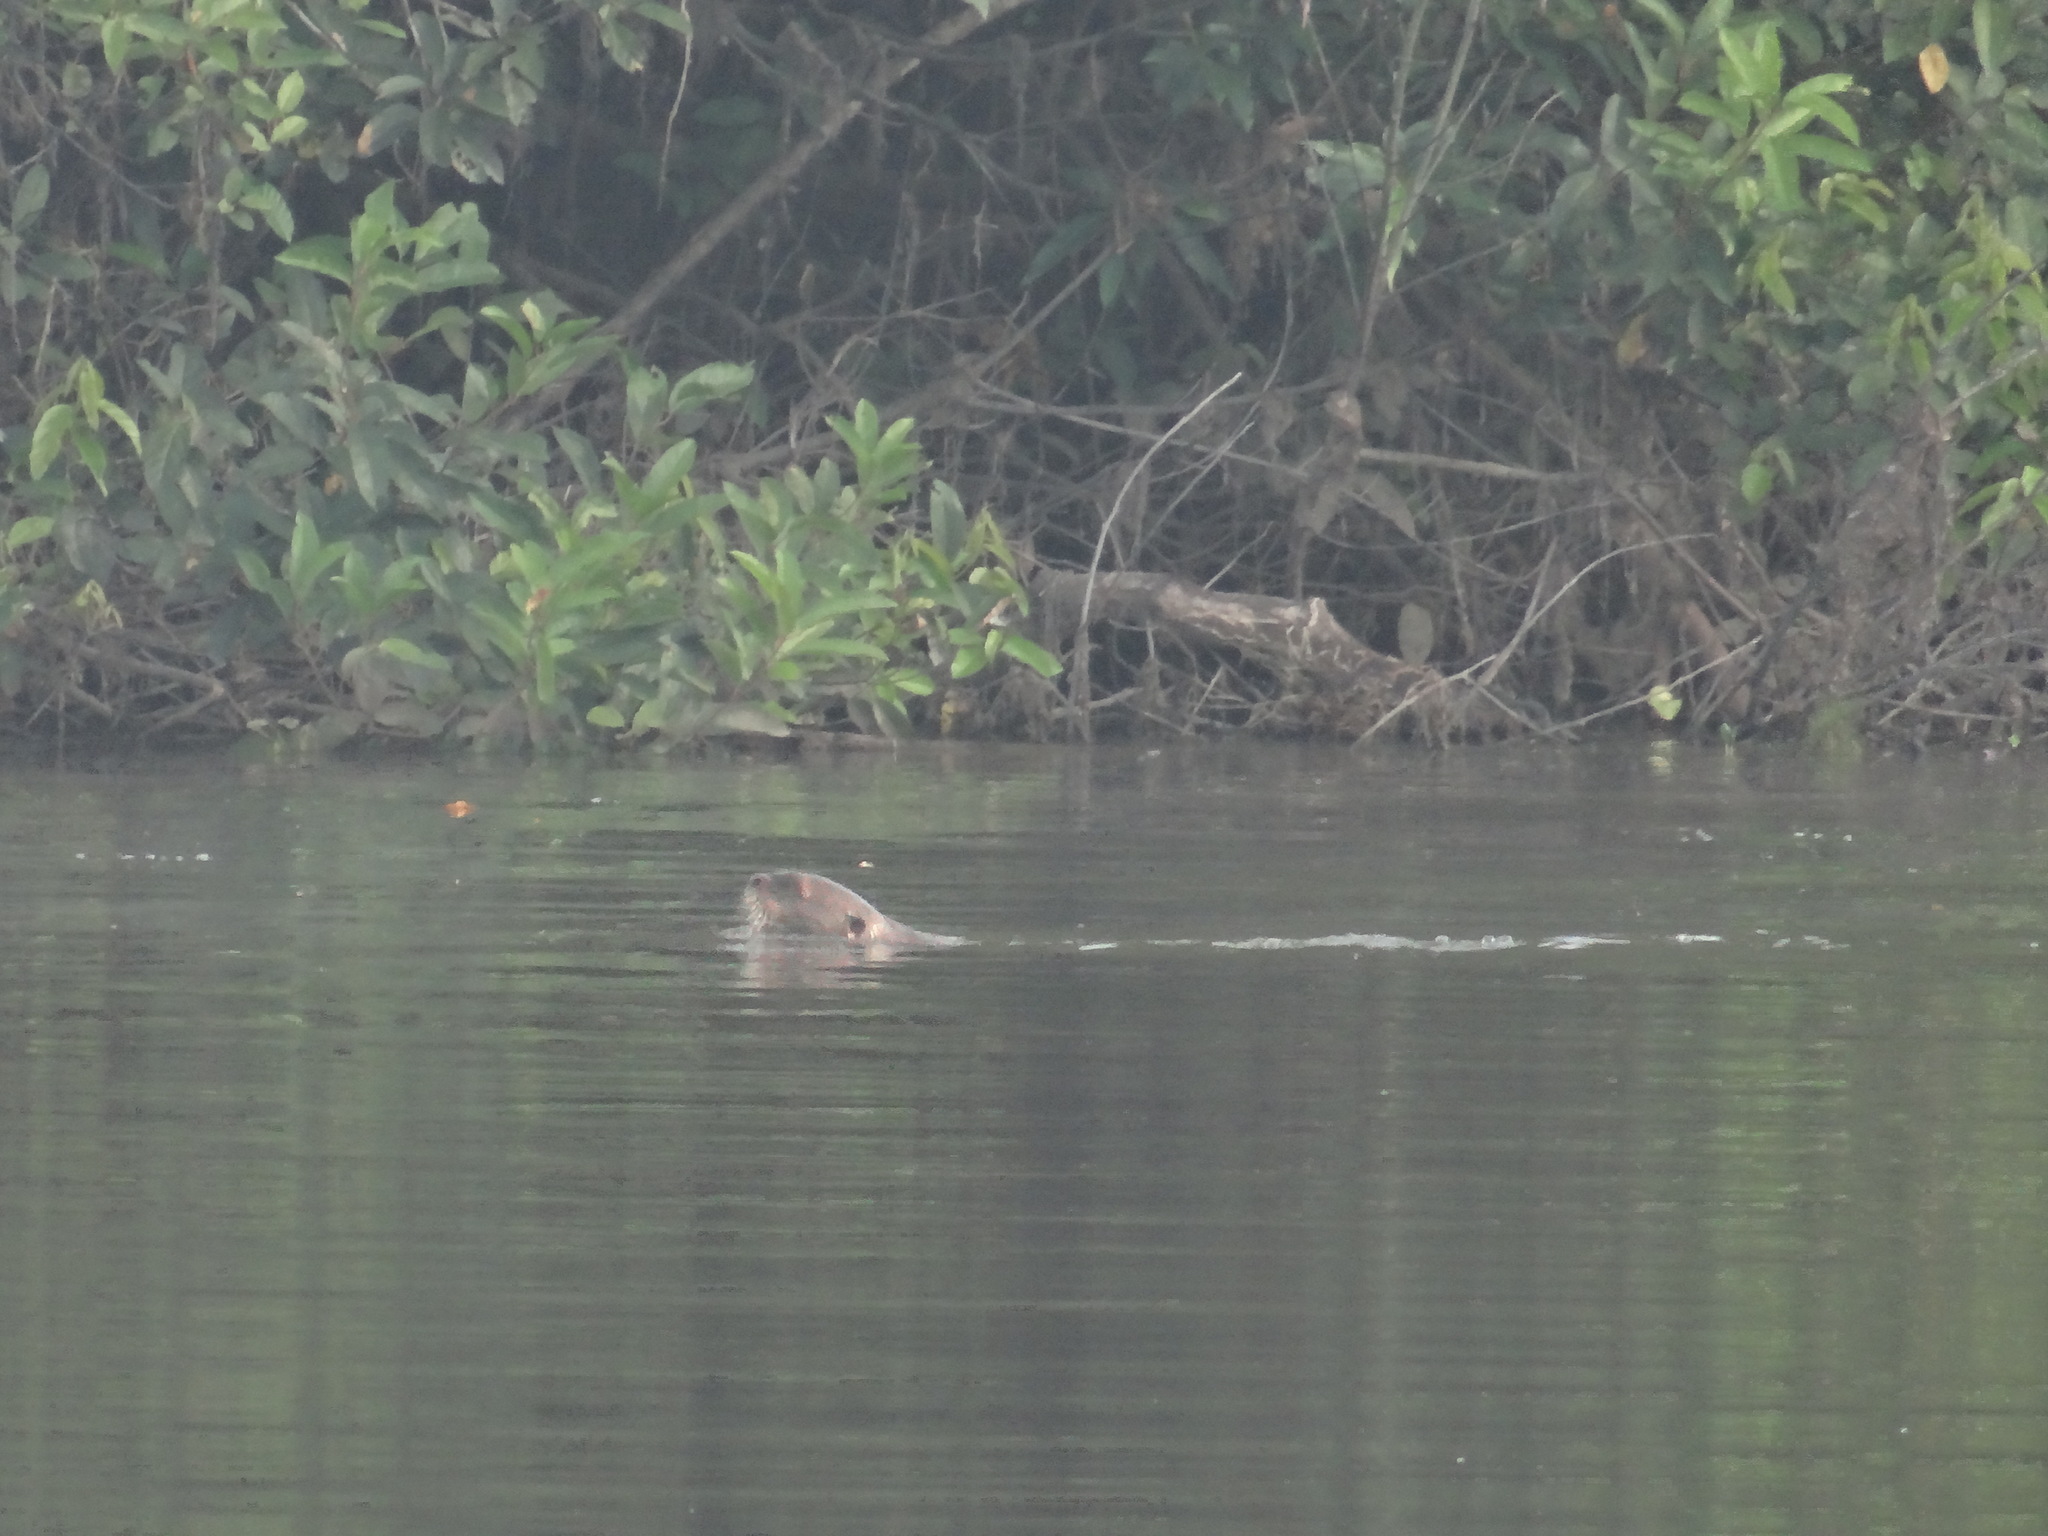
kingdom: Animalia
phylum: Chordata
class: Mammalia
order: Carnivora
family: Mustelidae
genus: Pteronura
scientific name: Pteronura brasiliensis
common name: Giant otter
